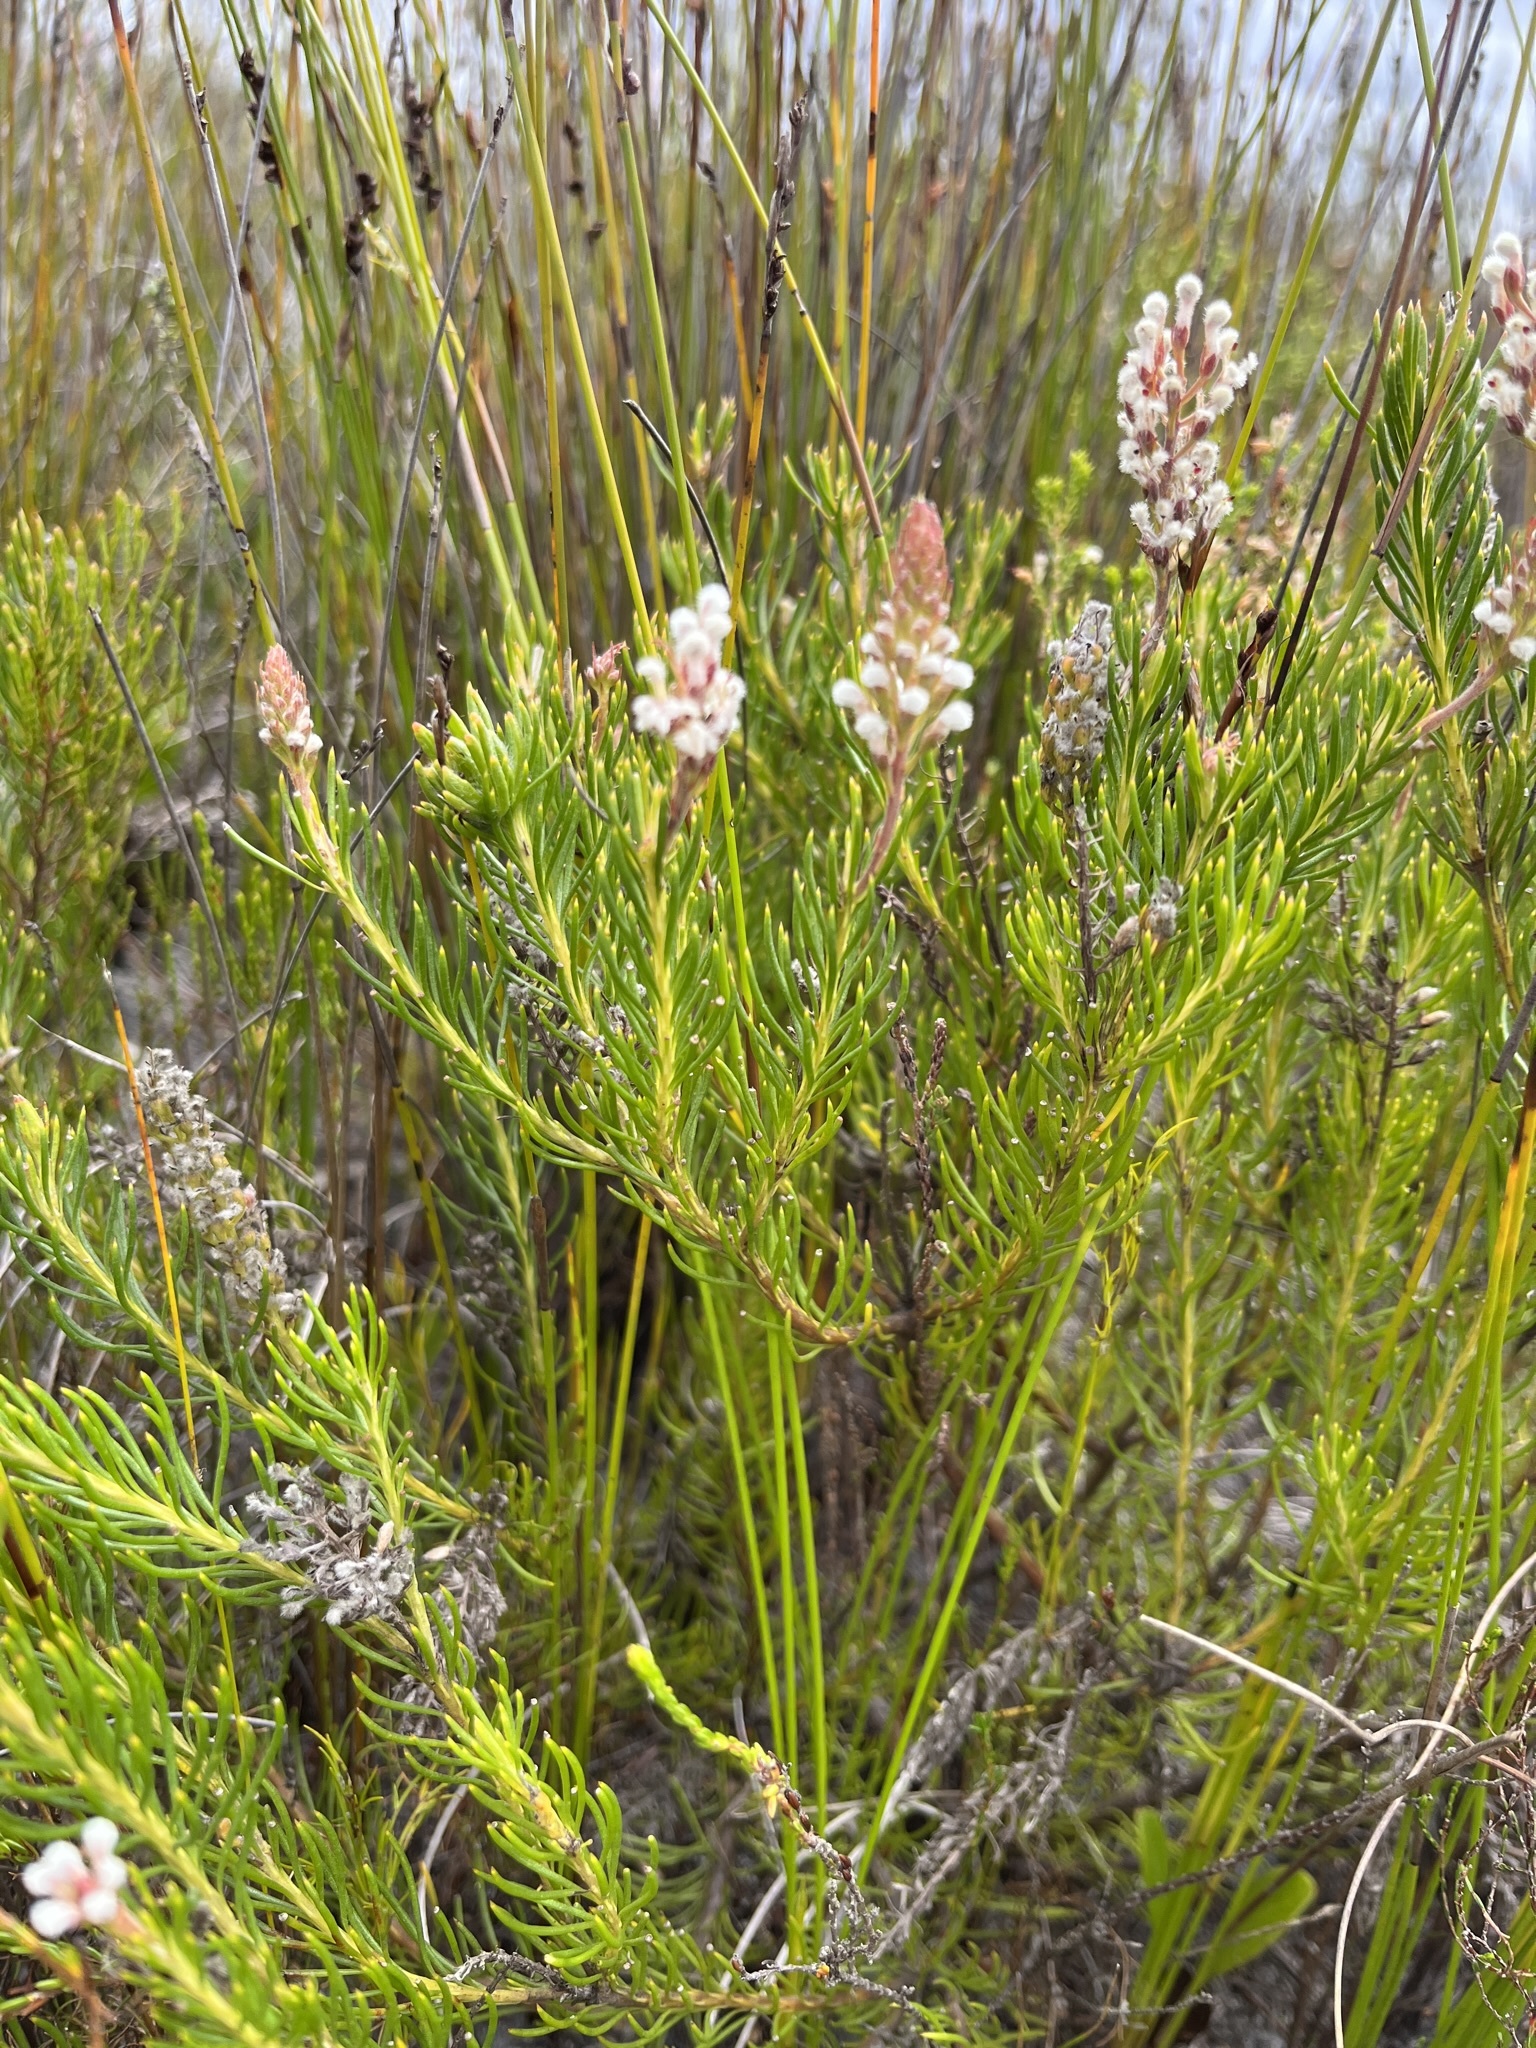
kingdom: Plantae
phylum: Tracheophyta
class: Magnoliopsida
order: Proteales
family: Proteaceae
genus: Spatalla
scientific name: Spatalla curvifolia
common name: White-stalked spoon
